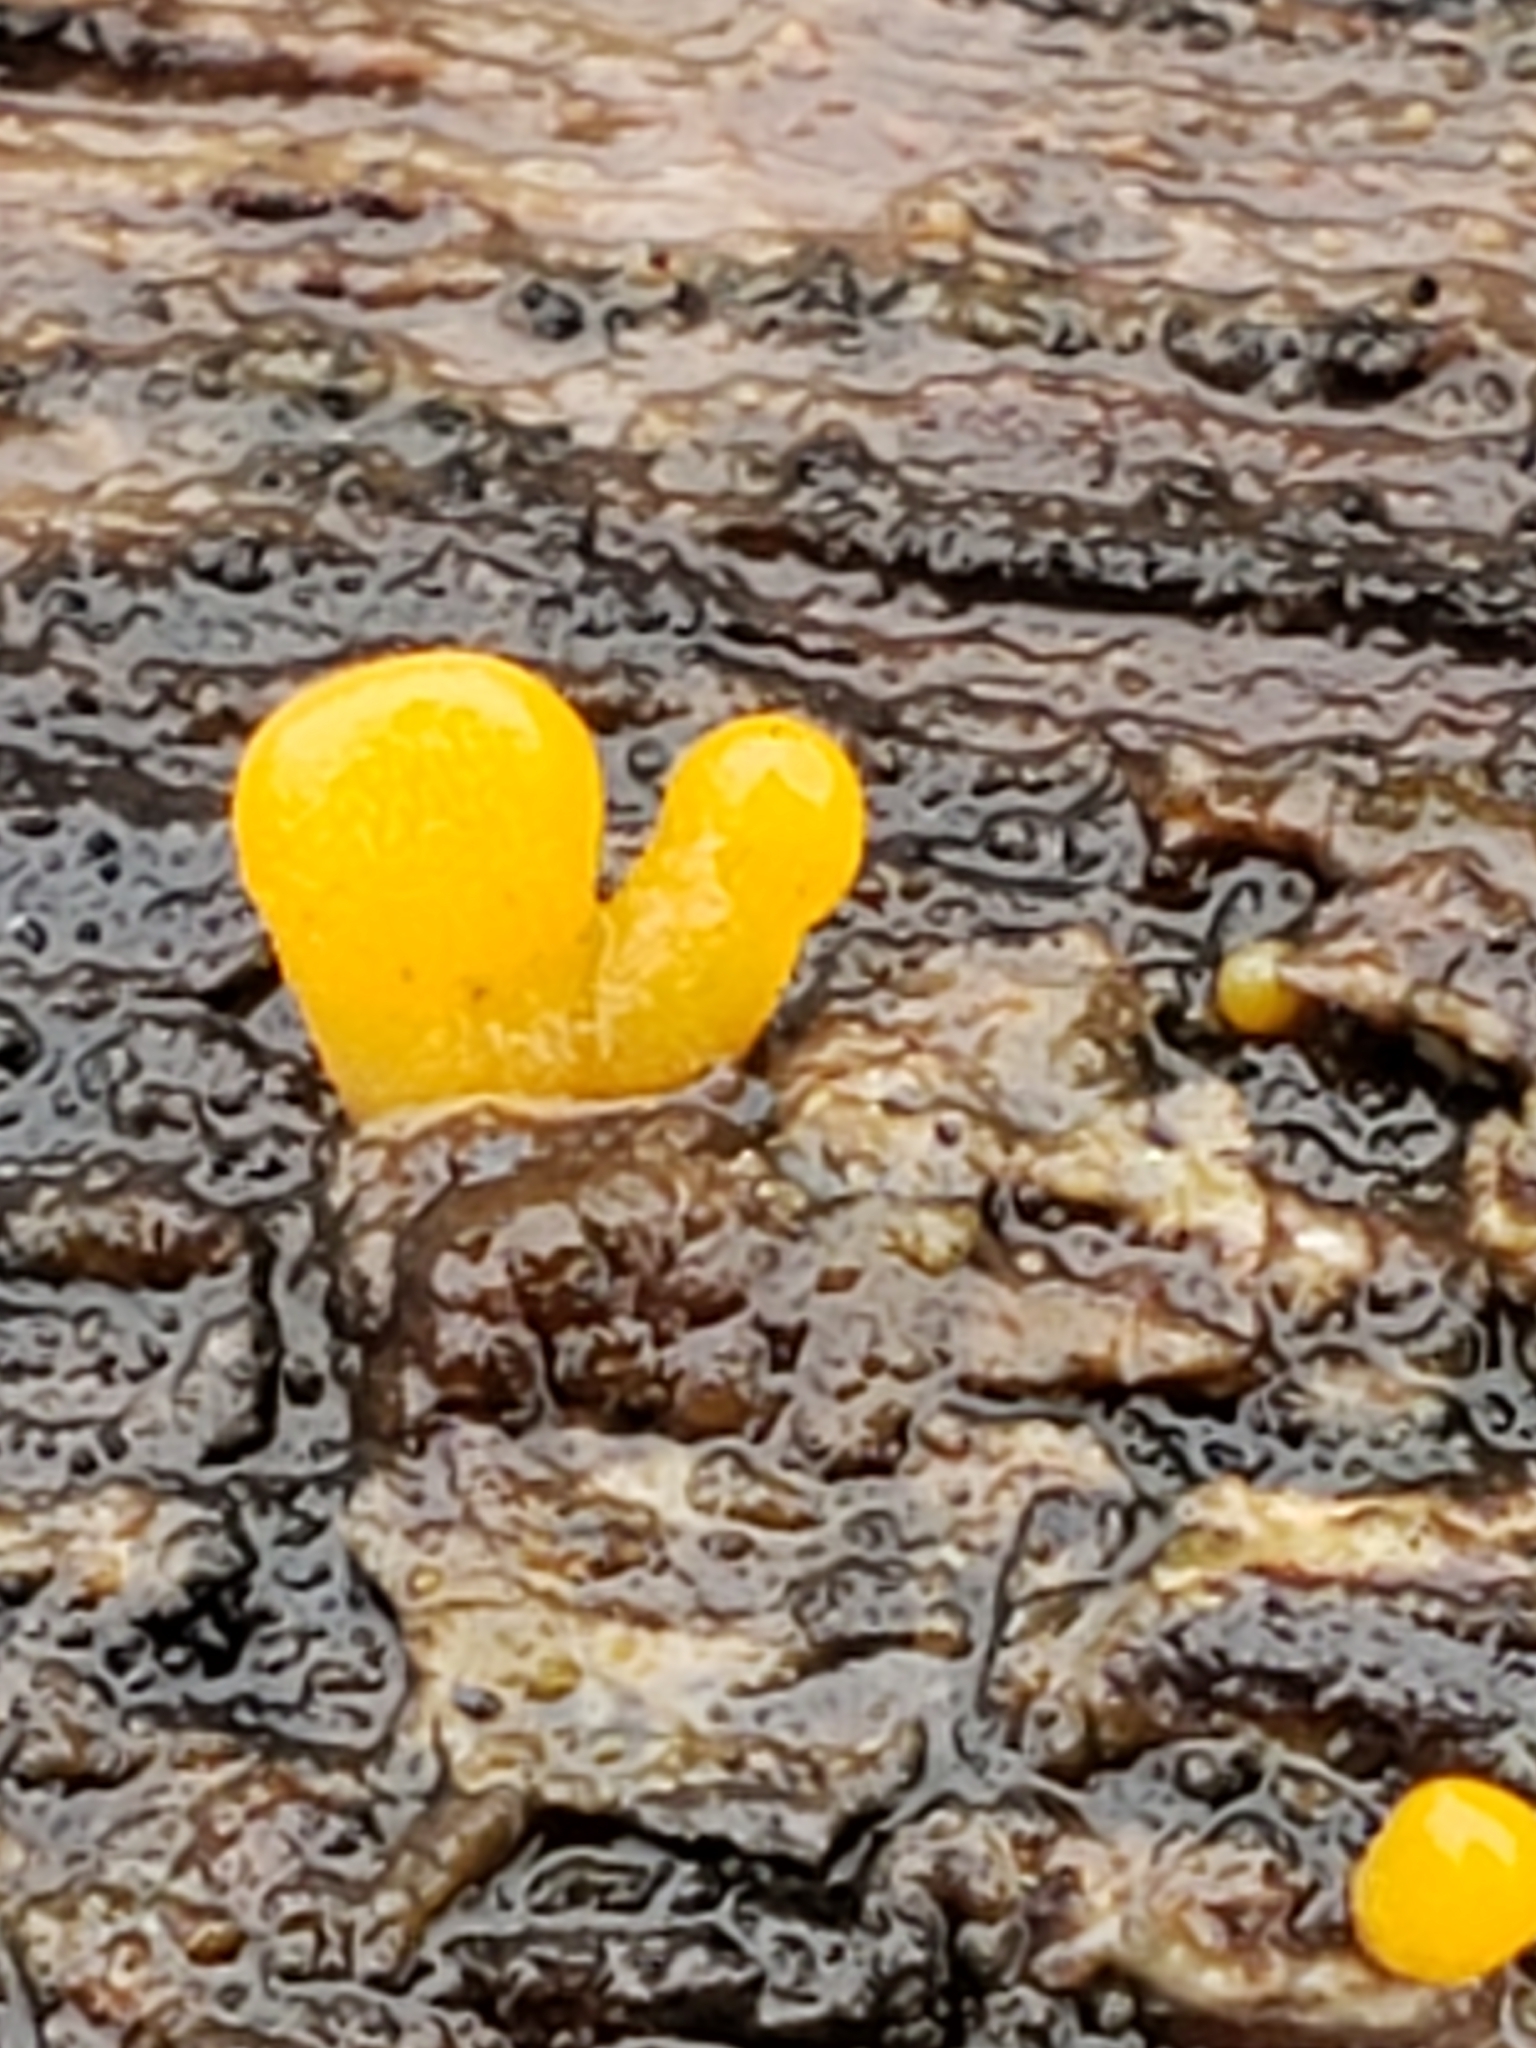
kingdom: Fungi
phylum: Basidiomycota
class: Dacrymycetes
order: Dacrymycetales
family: Dacrymycetaceae
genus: Dacrymyces
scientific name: Dacrymyces spathularius
